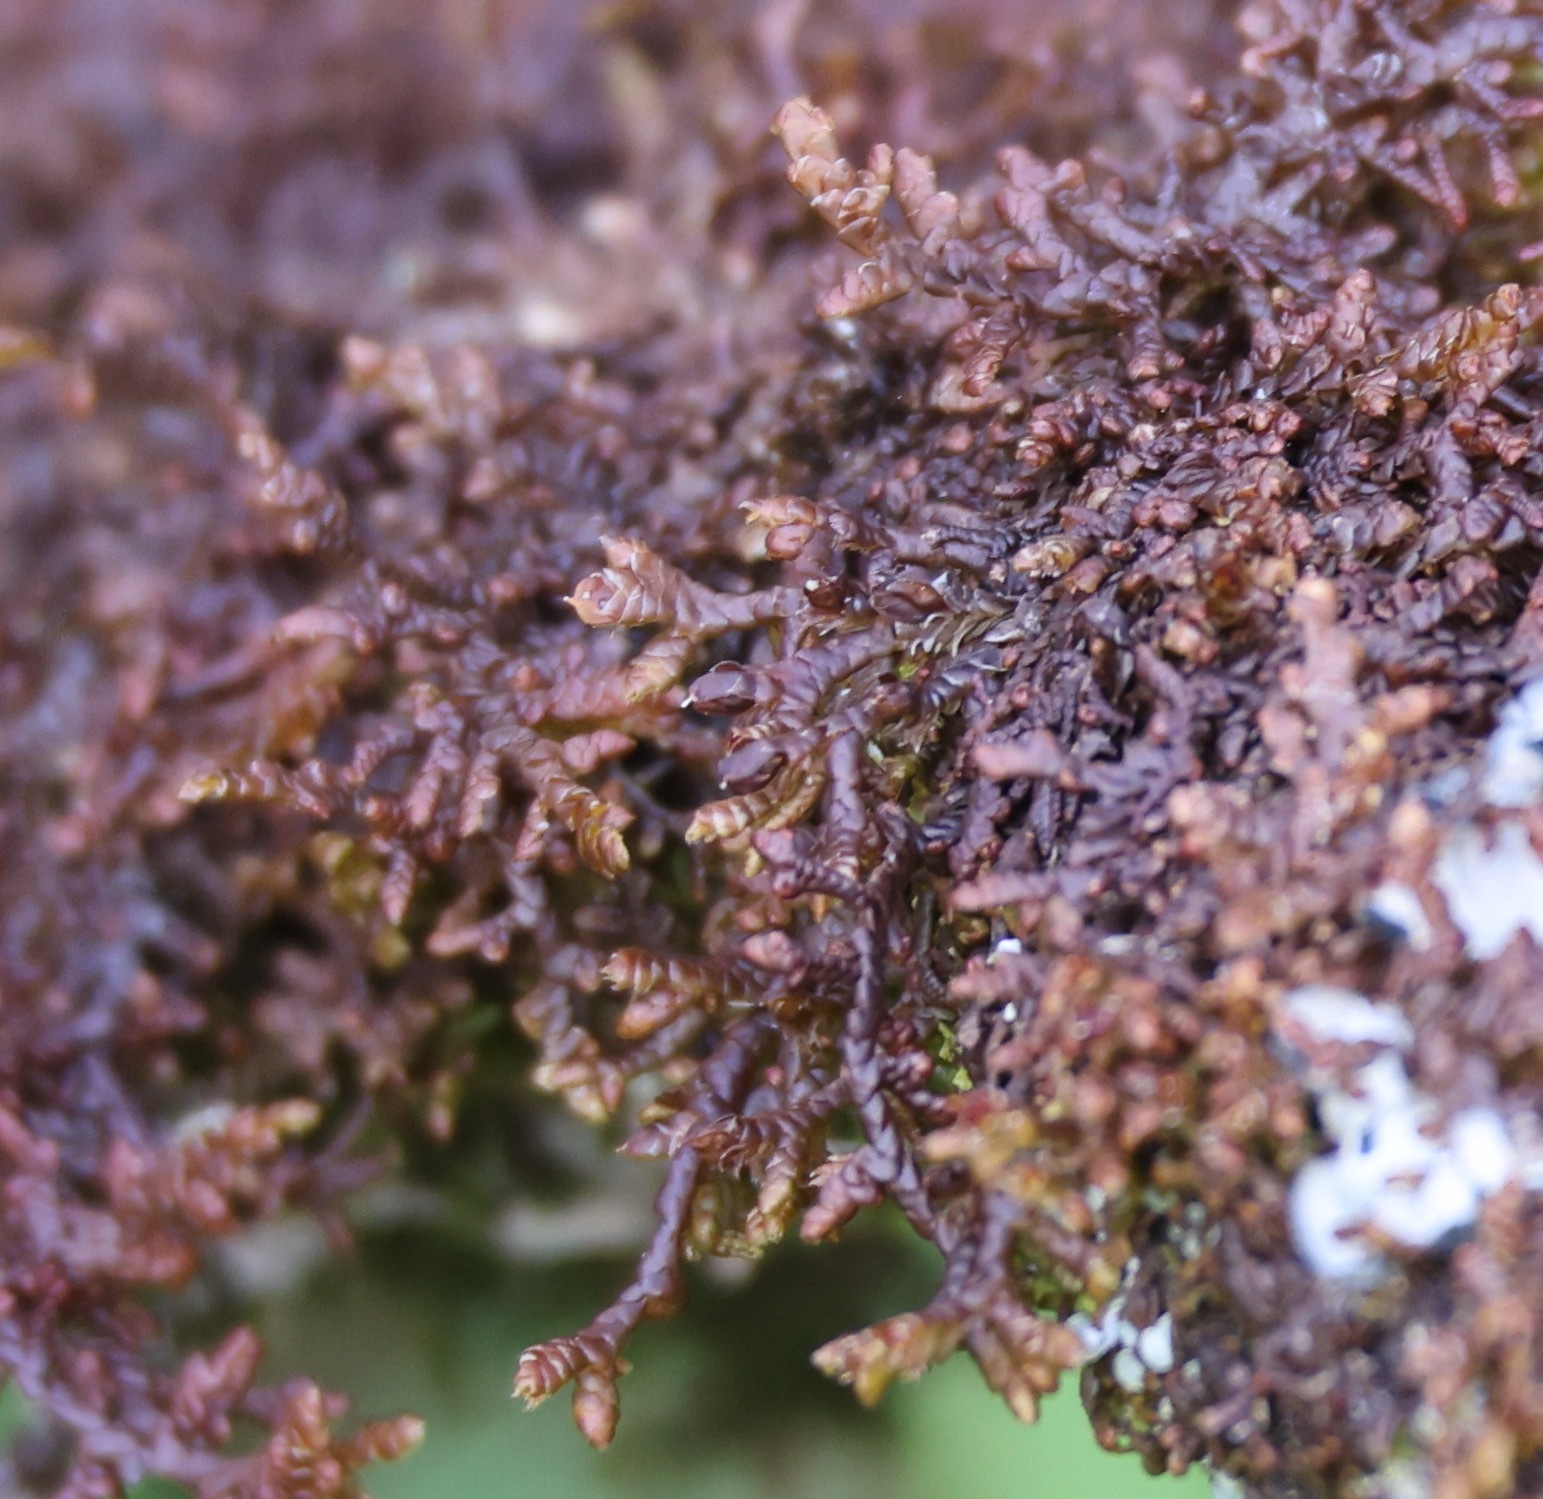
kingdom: Plantae
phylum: Marchantiophyta
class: Jungermanniopsida
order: Porellales
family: Frullaniaceae
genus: Frullania
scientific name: Frullania tamarisci
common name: Tamarisk scalewort
